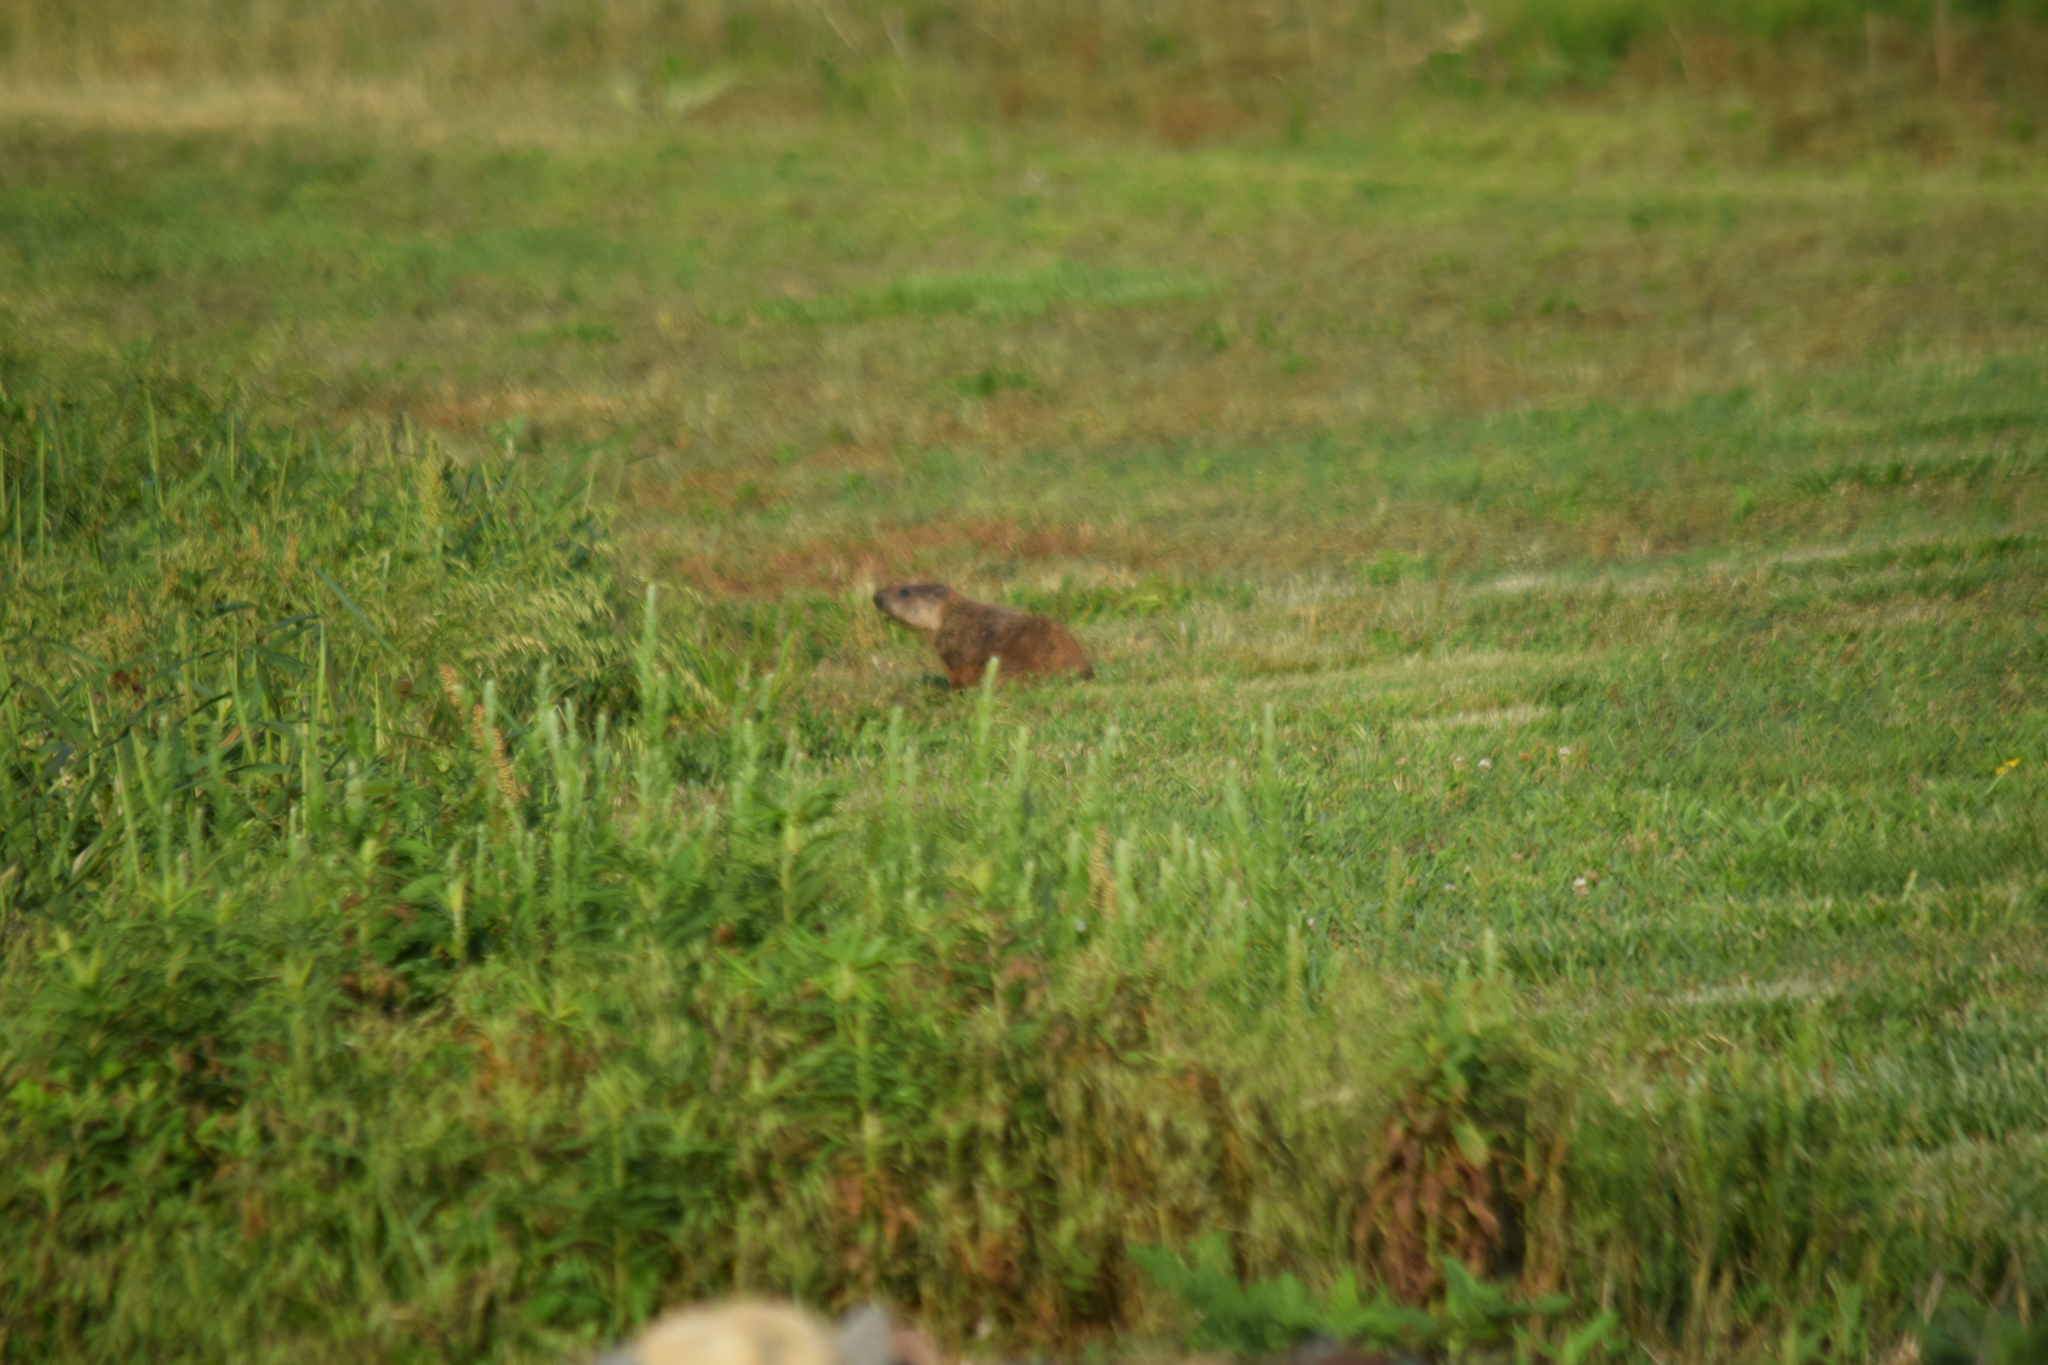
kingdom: Animalia
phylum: Chordata
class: Mammalia
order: Rodentia
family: Sciuridae
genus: Marmota
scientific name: Marmota monax
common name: Groundhog
